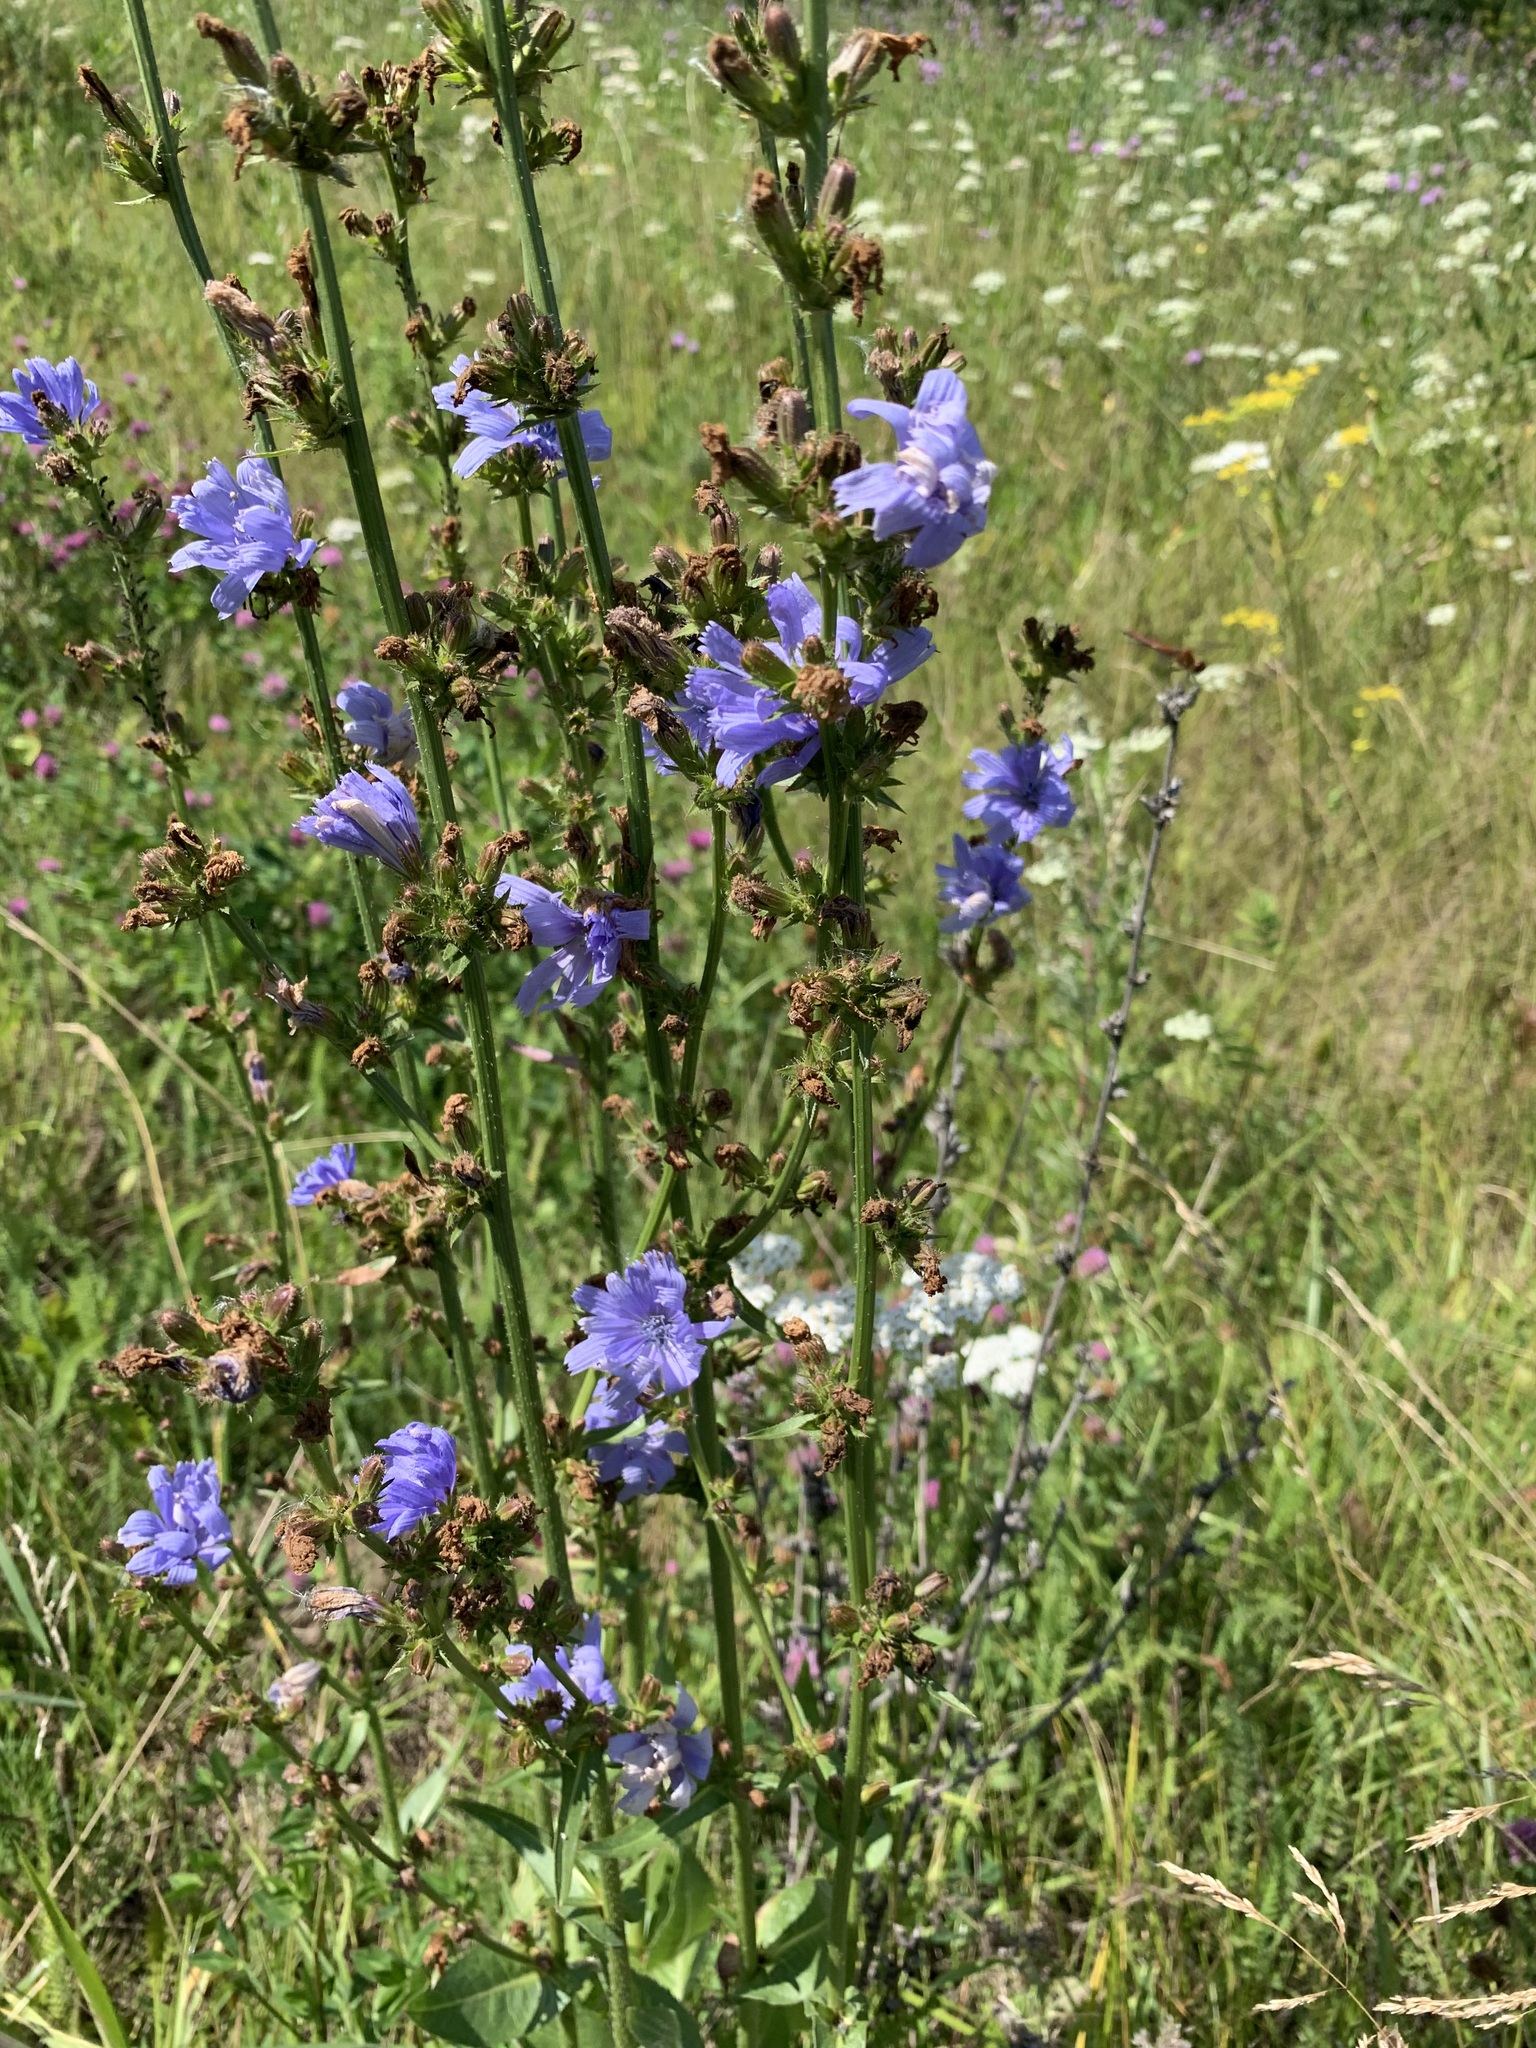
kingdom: Plantae
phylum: Tracheophyta
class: Magnoliopsida
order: Asterales
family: Asteraceae
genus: Cichorium
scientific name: Cichorium intybus
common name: Chicory
